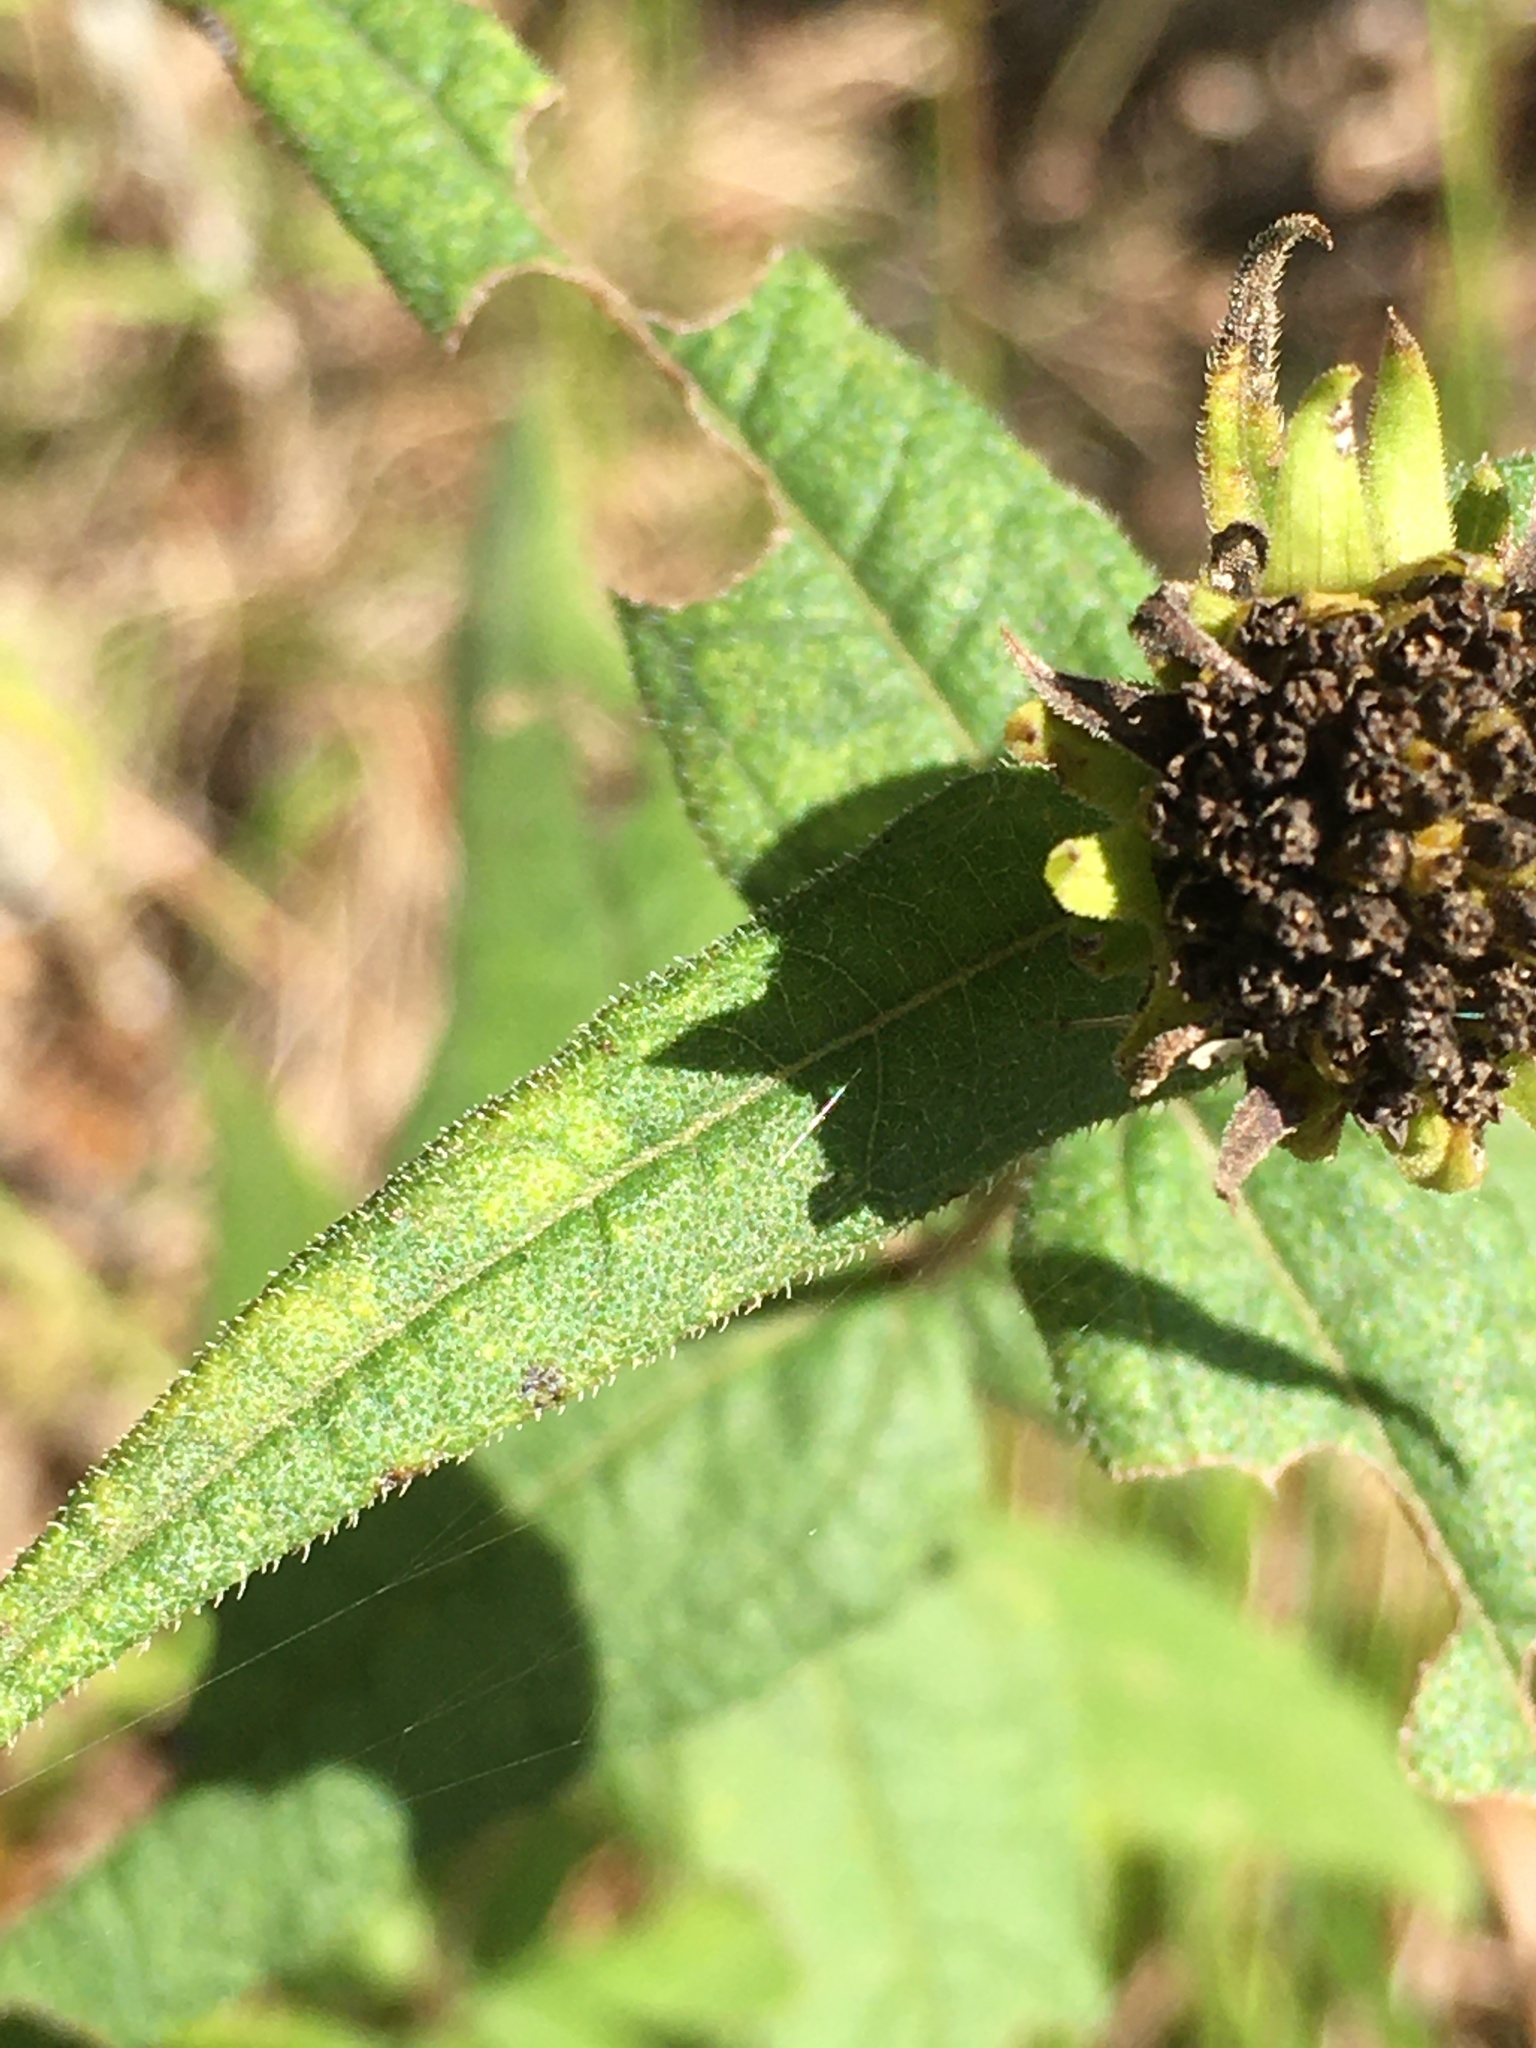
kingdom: Plantae
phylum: Tracheophyta
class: Magnoliopsida
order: Asterales
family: Asteraceae
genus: Helianthus
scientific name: Helianthus divaricatus
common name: Divergent sunflower
